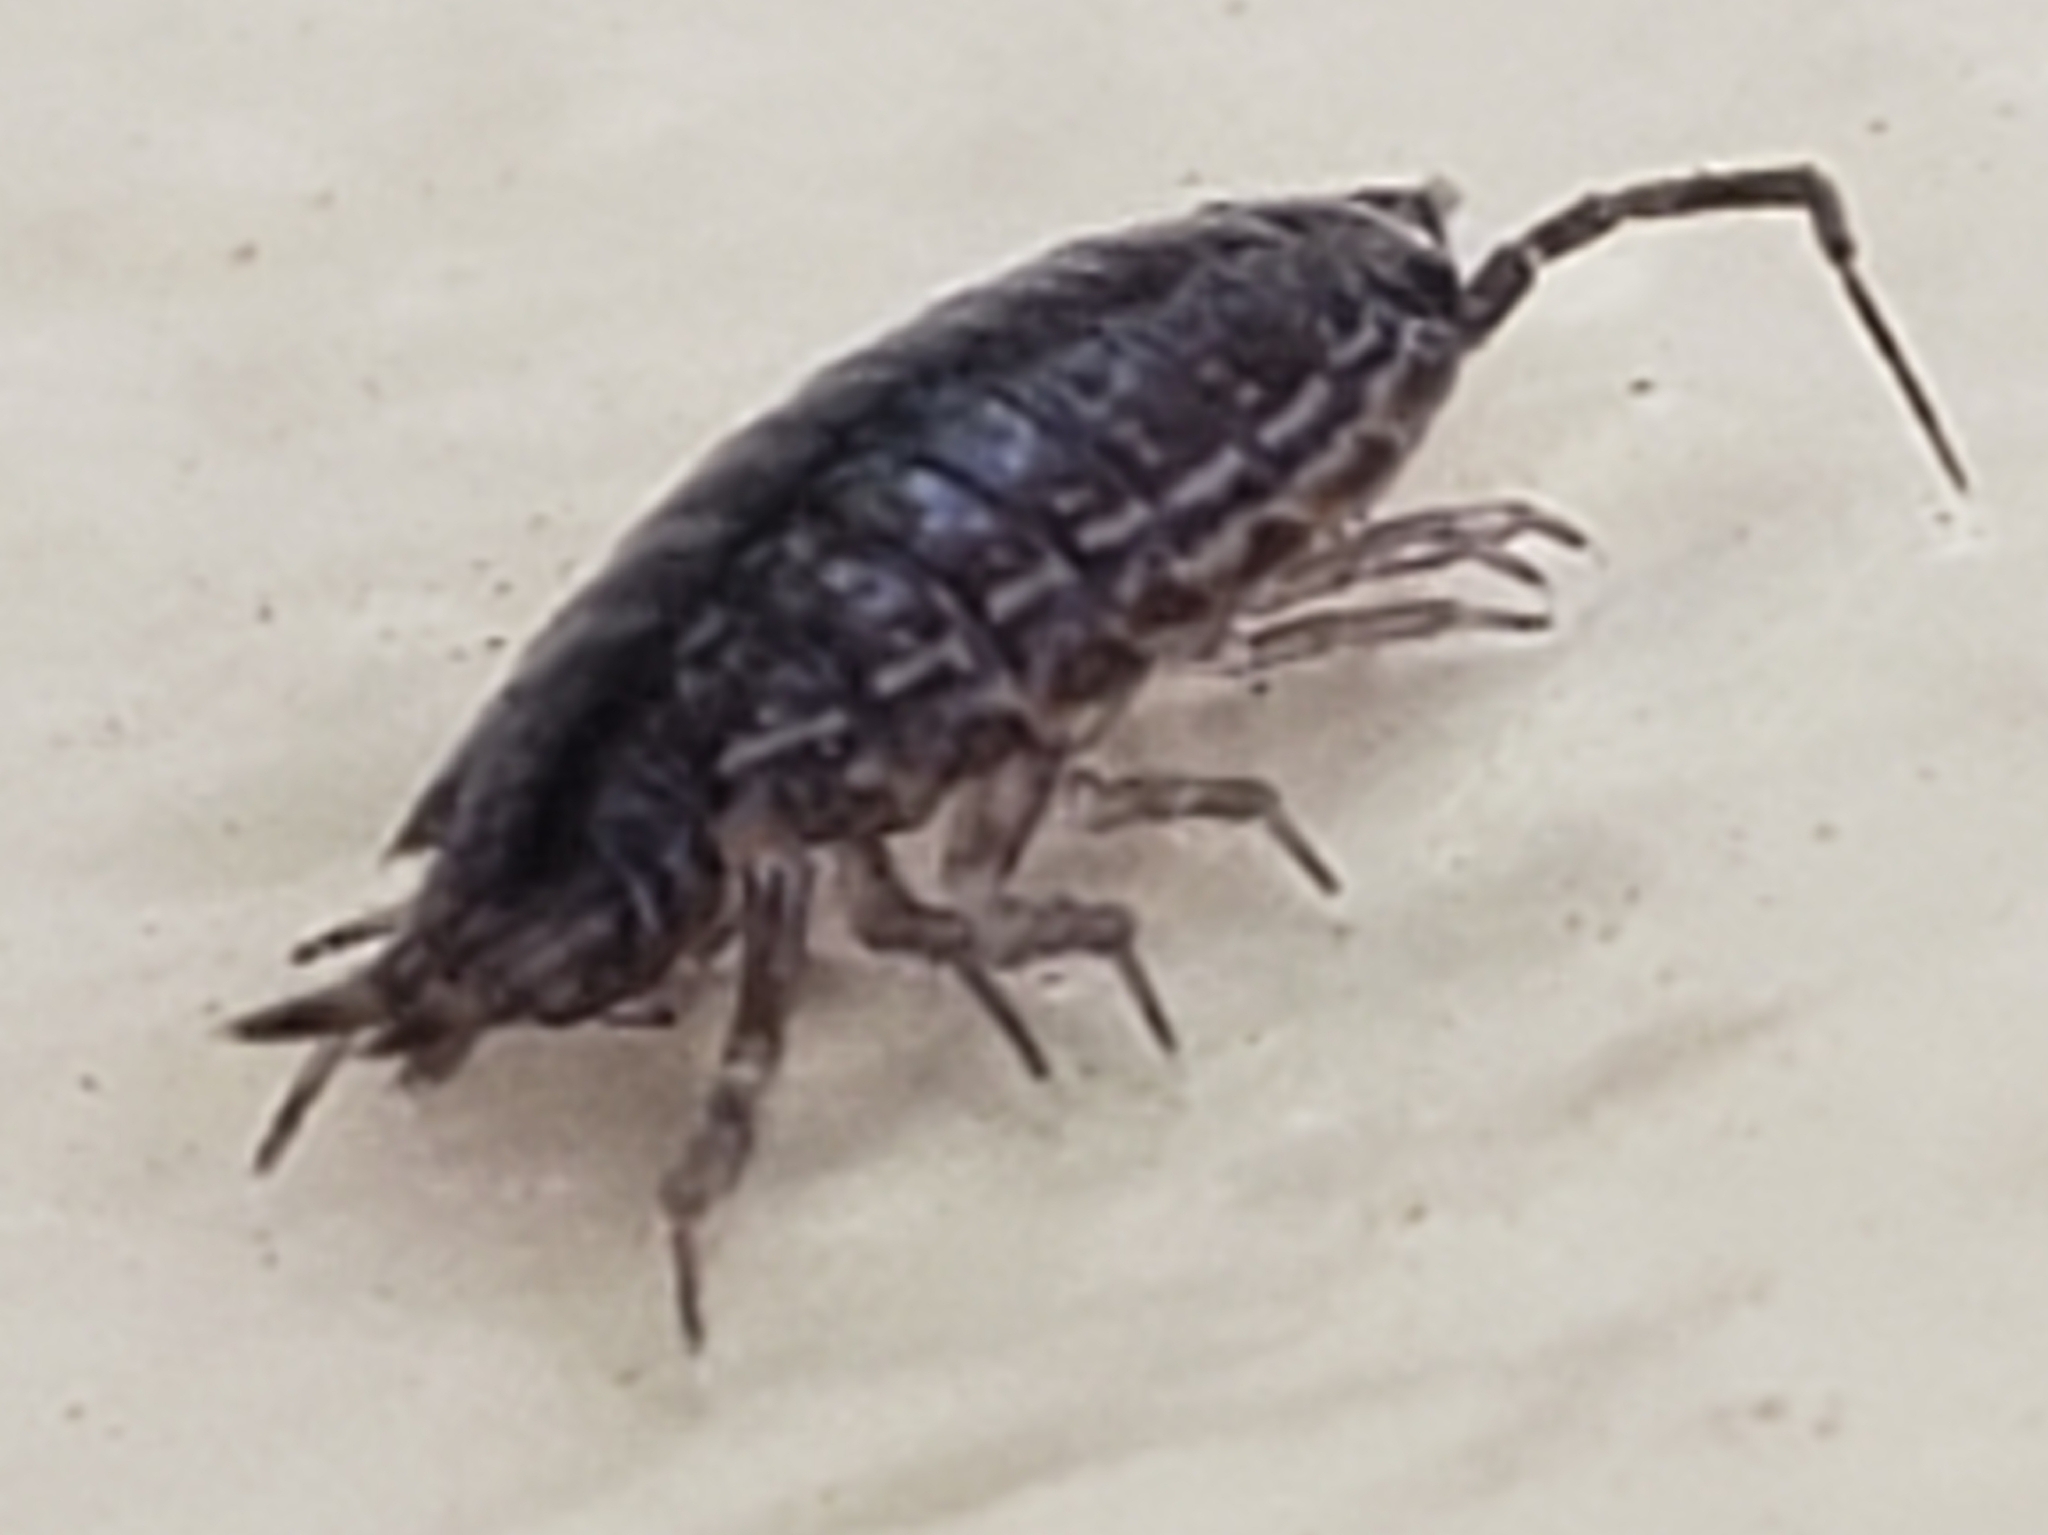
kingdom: Animalia
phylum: Arthropoda
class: Malacostraca
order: Isopoda
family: Philosciidae
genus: Atlantoscia
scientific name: Atlantoscia floridana
